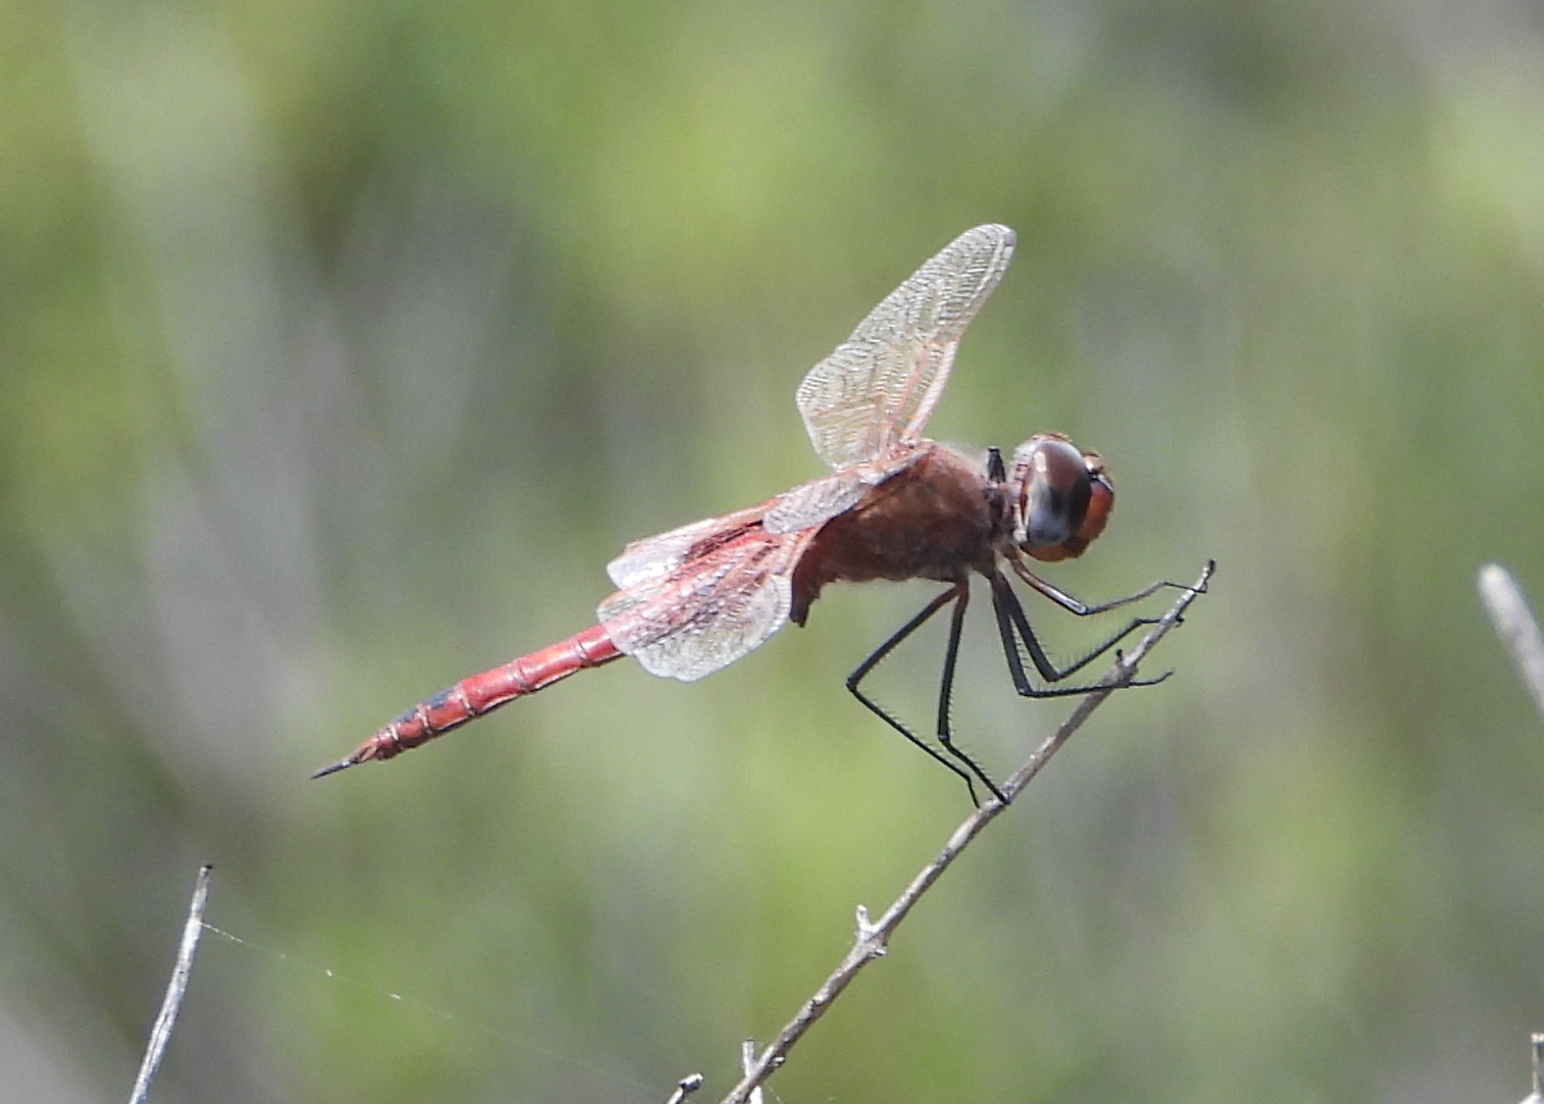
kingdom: Animalia
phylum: Arthropoda
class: Insecta
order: Odonata
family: Libellulidae
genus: Tramea
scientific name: Tramea limbata
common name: Ferruginous glider
